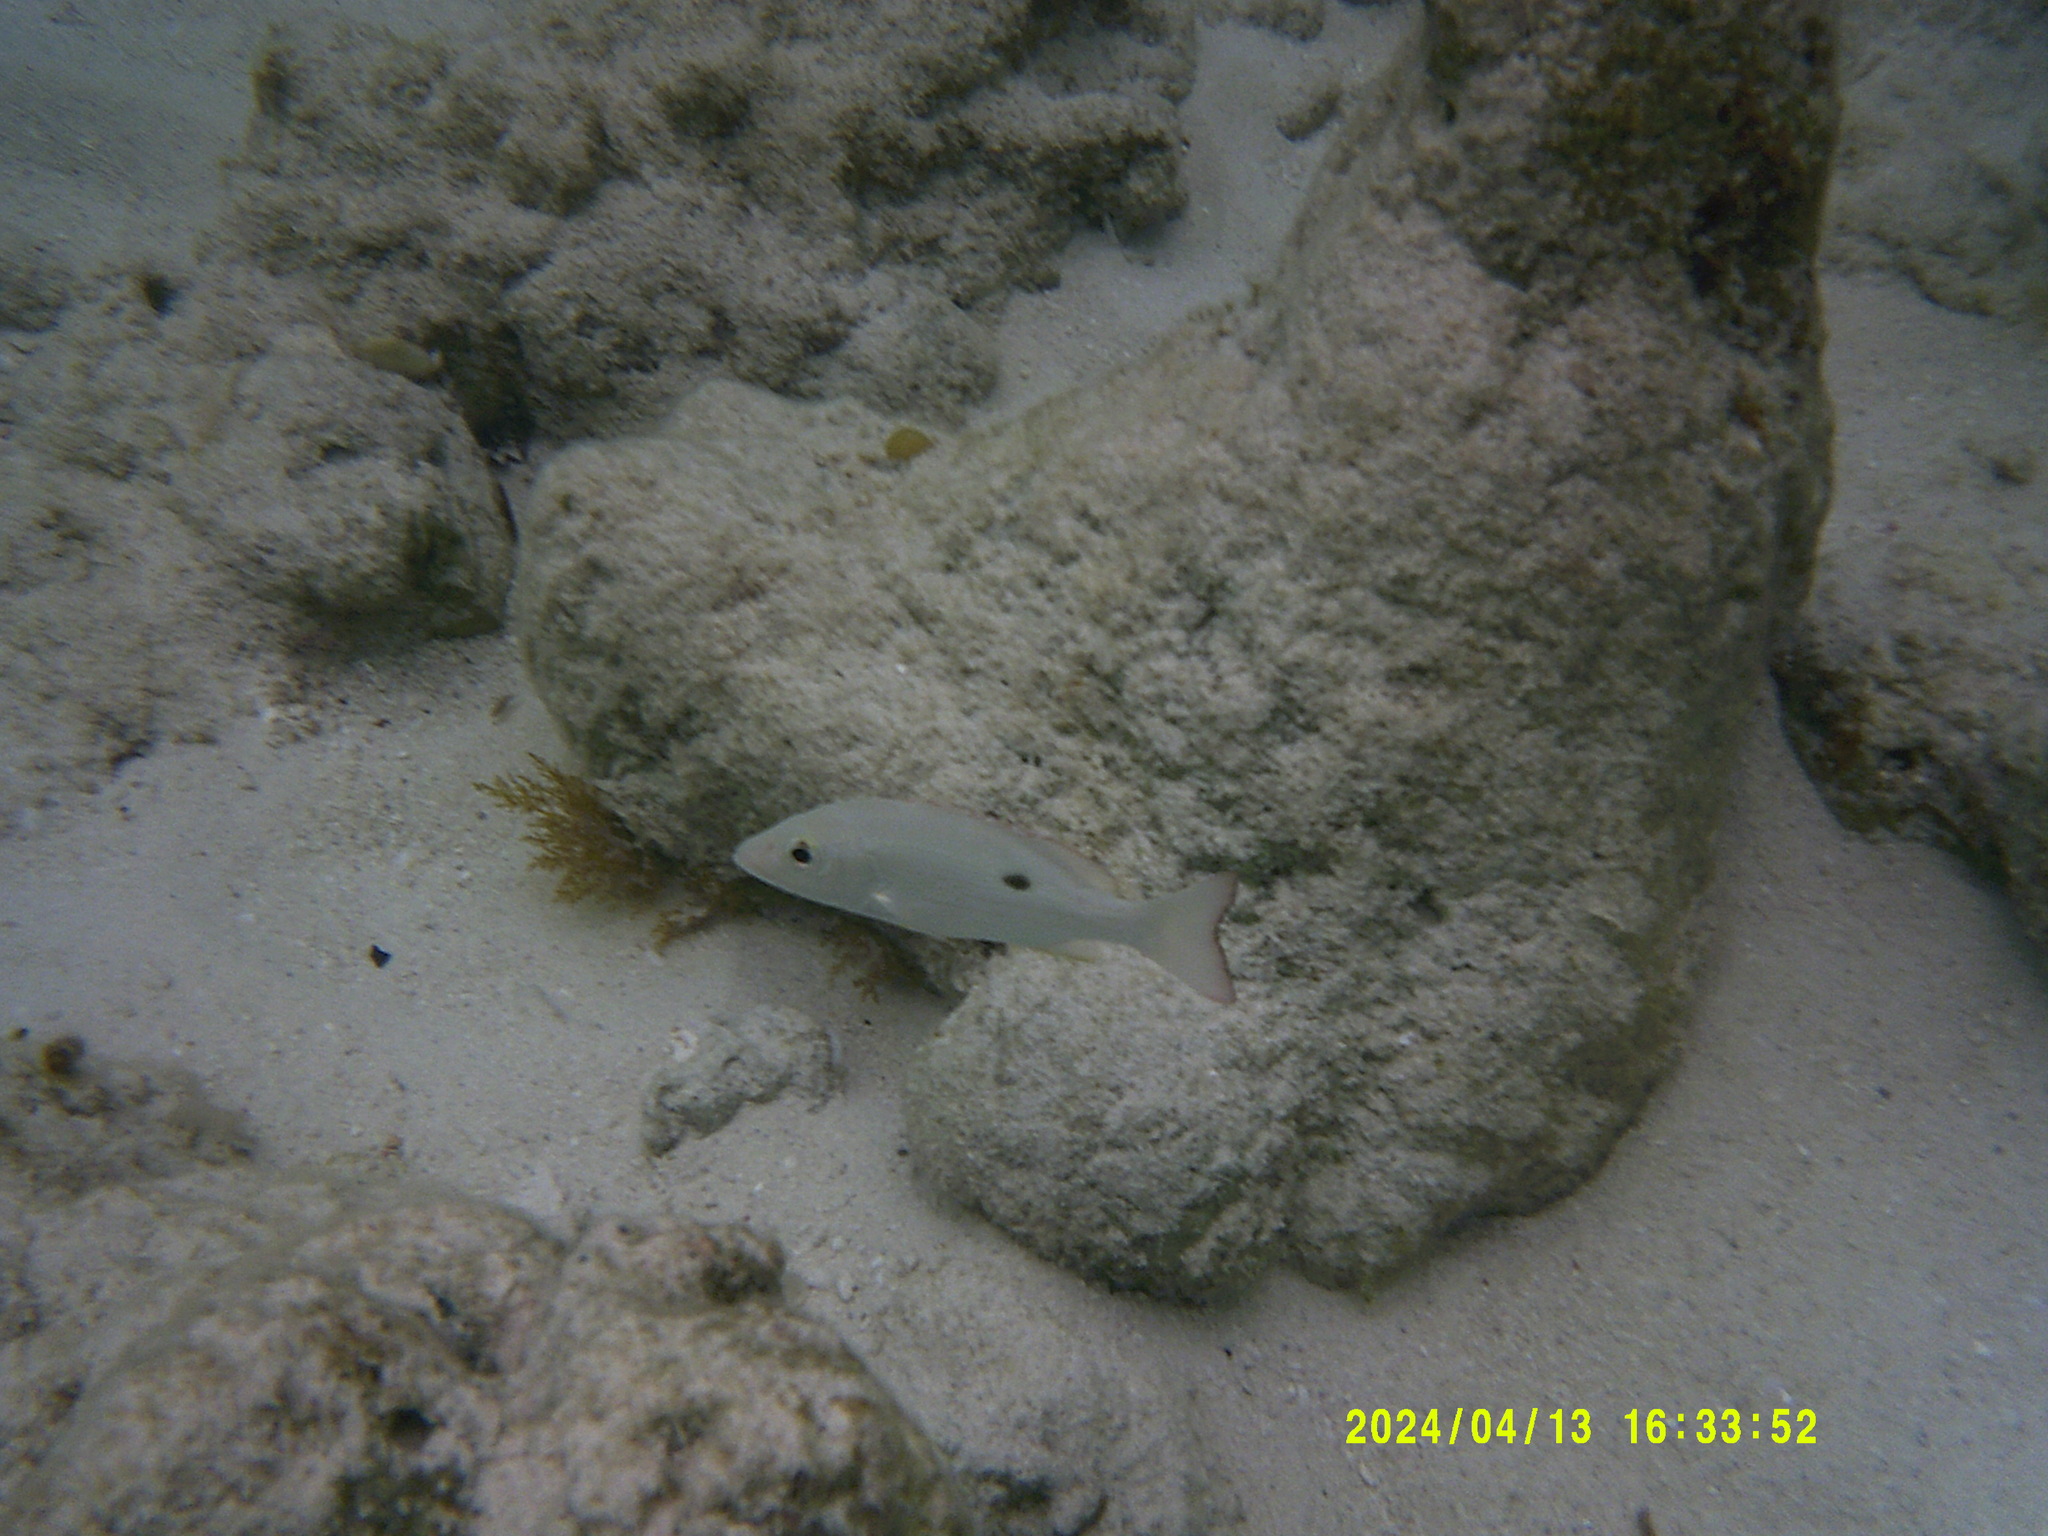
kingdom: Animalia
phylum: Chordata
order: Perciformes
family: Lutjanidae
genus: Lutjanus
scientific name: Lutjanus mahogoni
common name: Spot snapper
